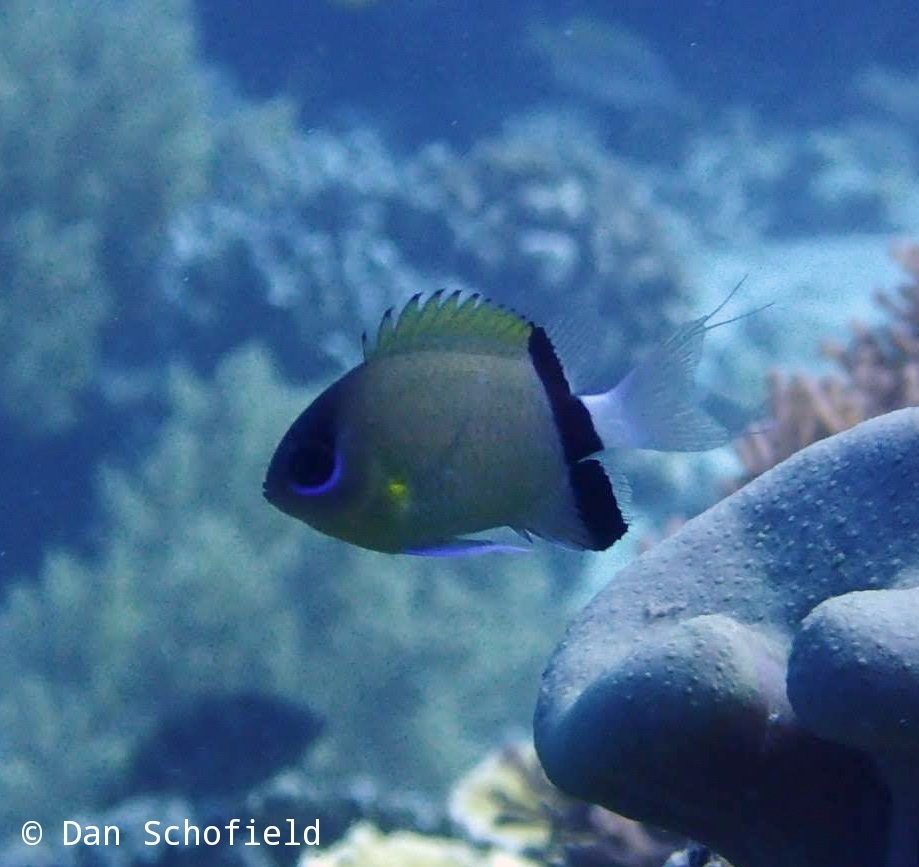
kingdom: Animalia
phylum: Chordata
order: Perciformes
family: Pomacentridae
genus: Chromis
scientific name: Chromis retrofasciata
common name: Black-bar chromis
